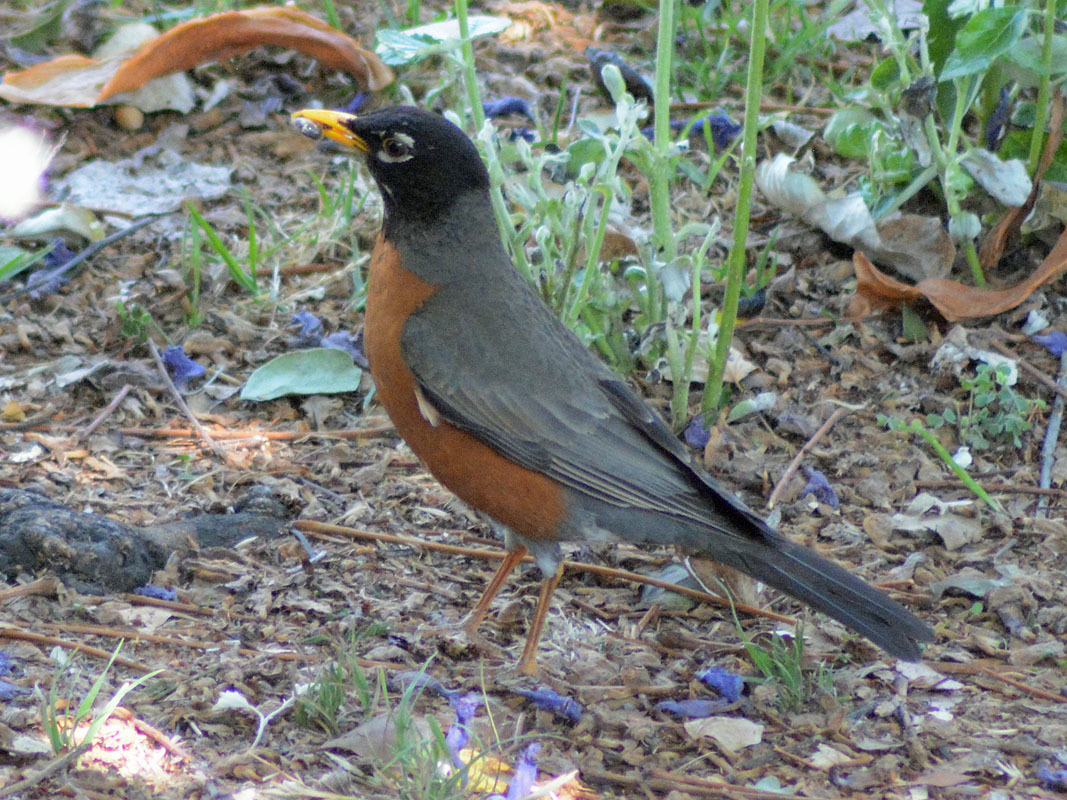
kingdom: Animalia
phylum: Chordata
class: Aves
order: Passeriformes
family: Turdidae
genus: Turdus
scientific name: Turdus migratorius
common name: American robin
